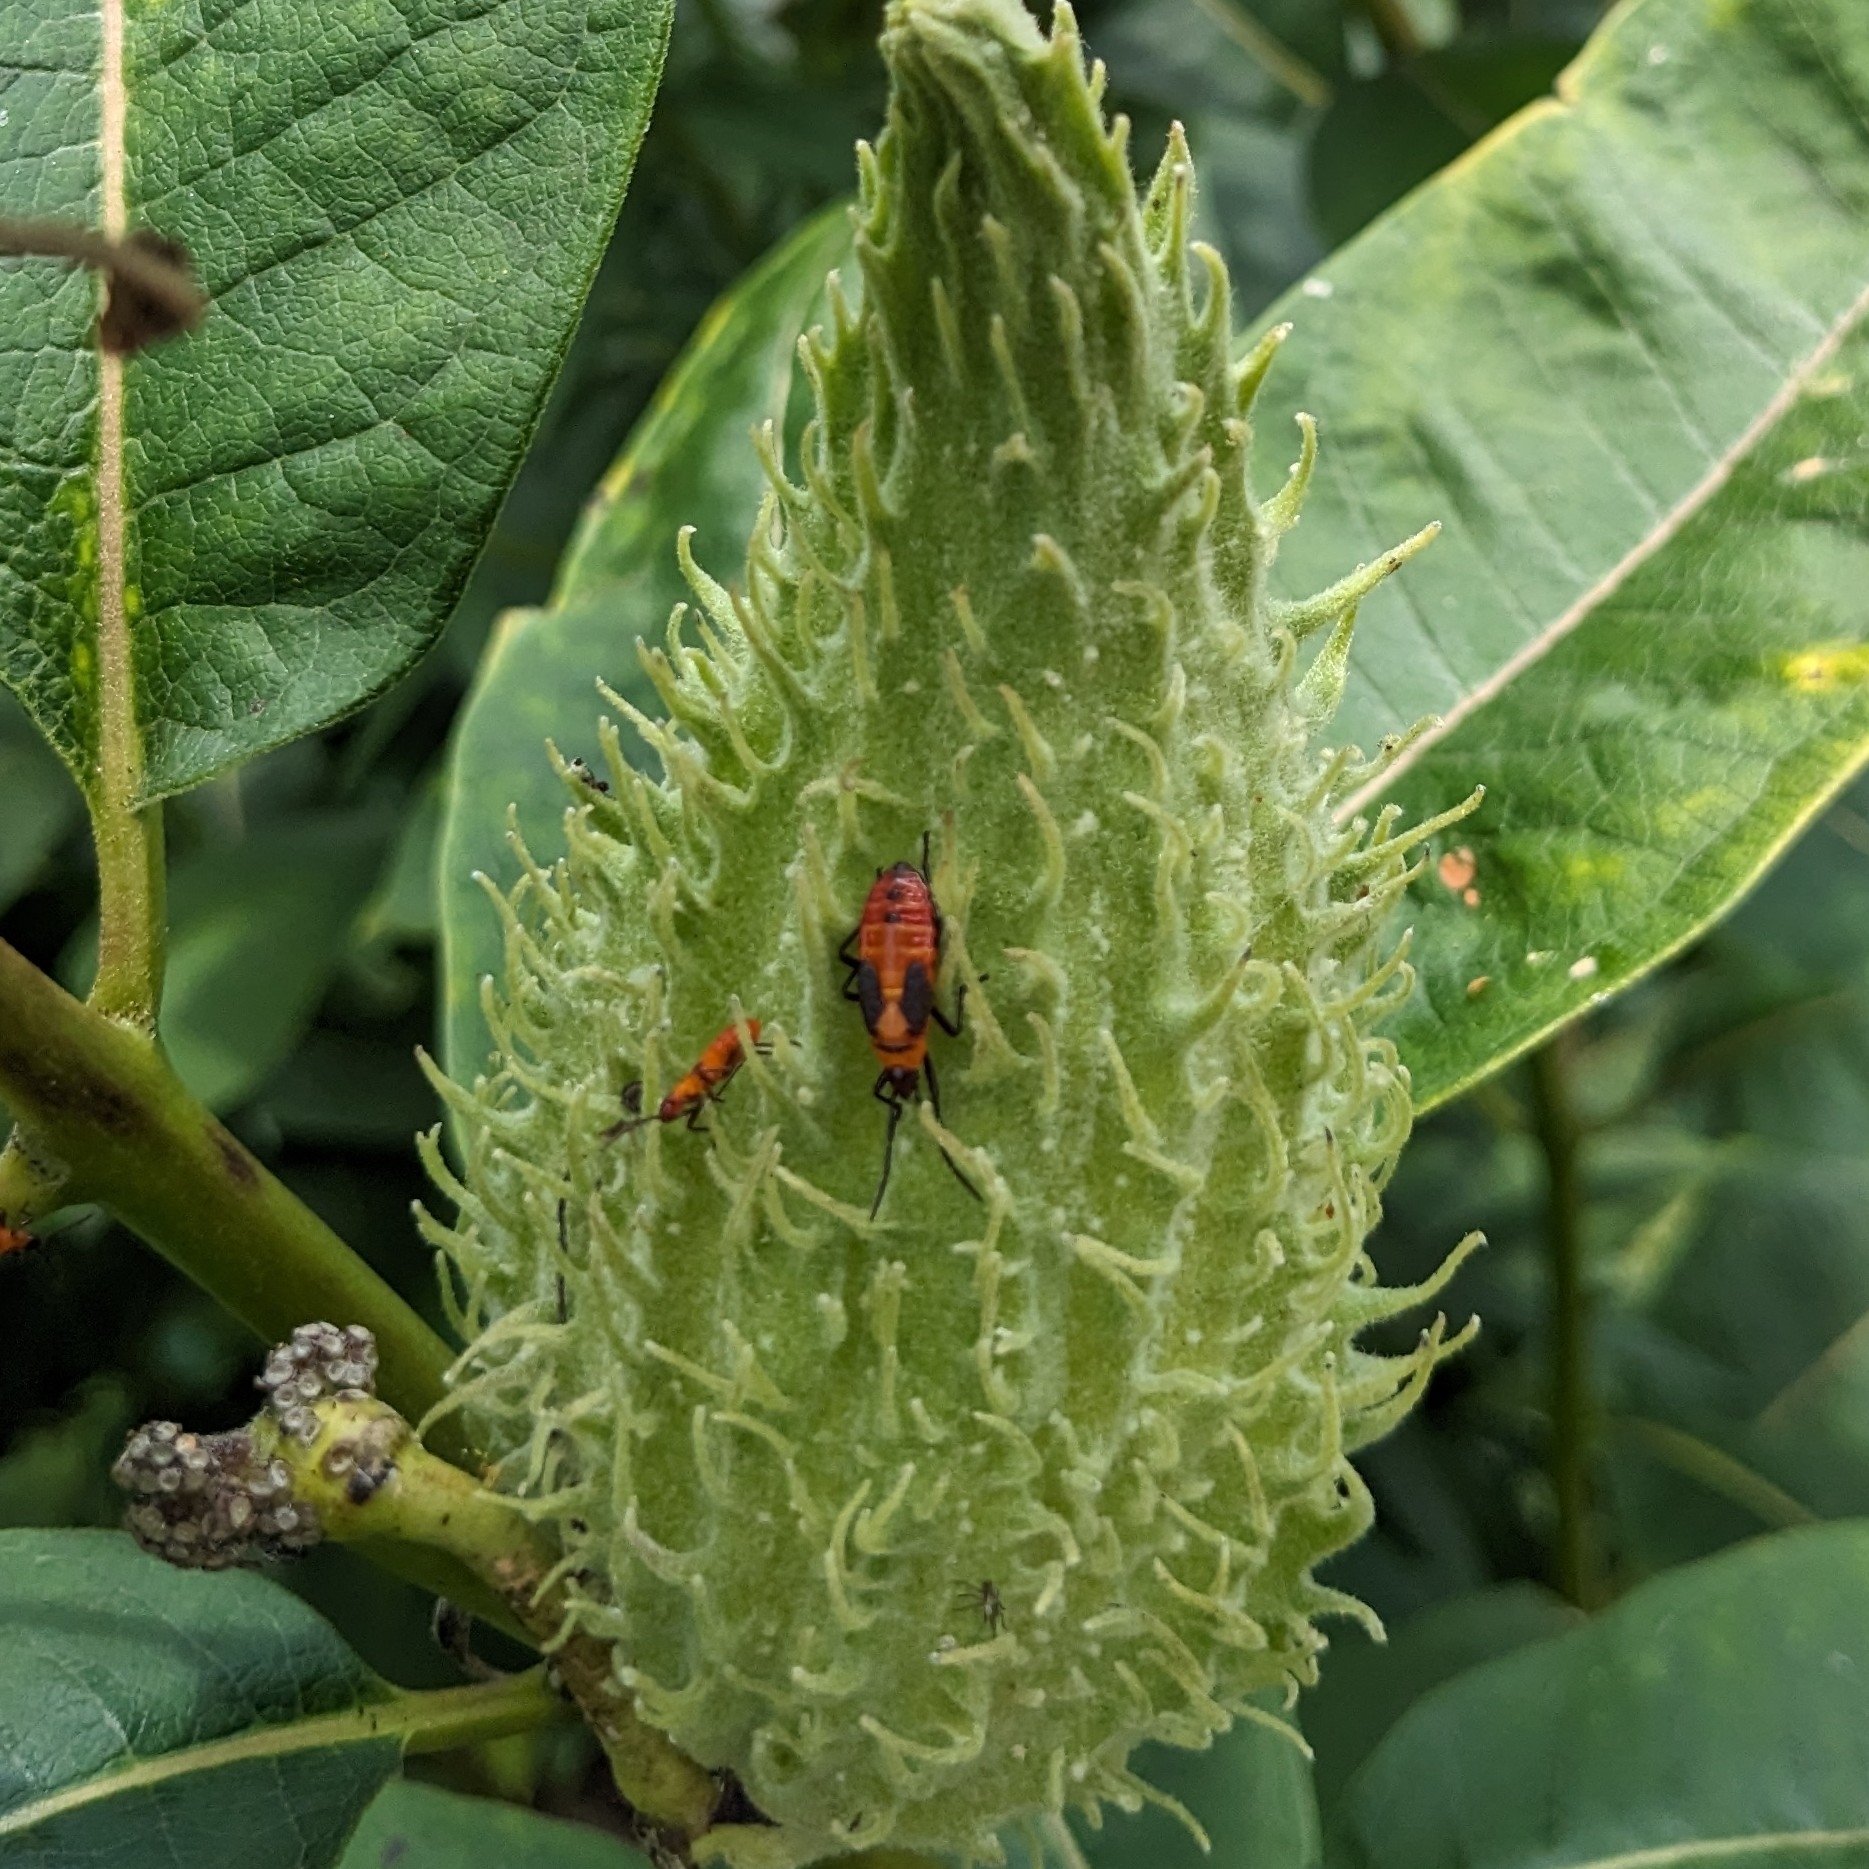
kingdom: Animalia
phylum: Arthropoda
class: Insecta
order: Hemiptera
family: Lygaeidae
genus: Oncopeltus
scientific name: Oncopeltus fasciatus
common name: Large milkweed bug
